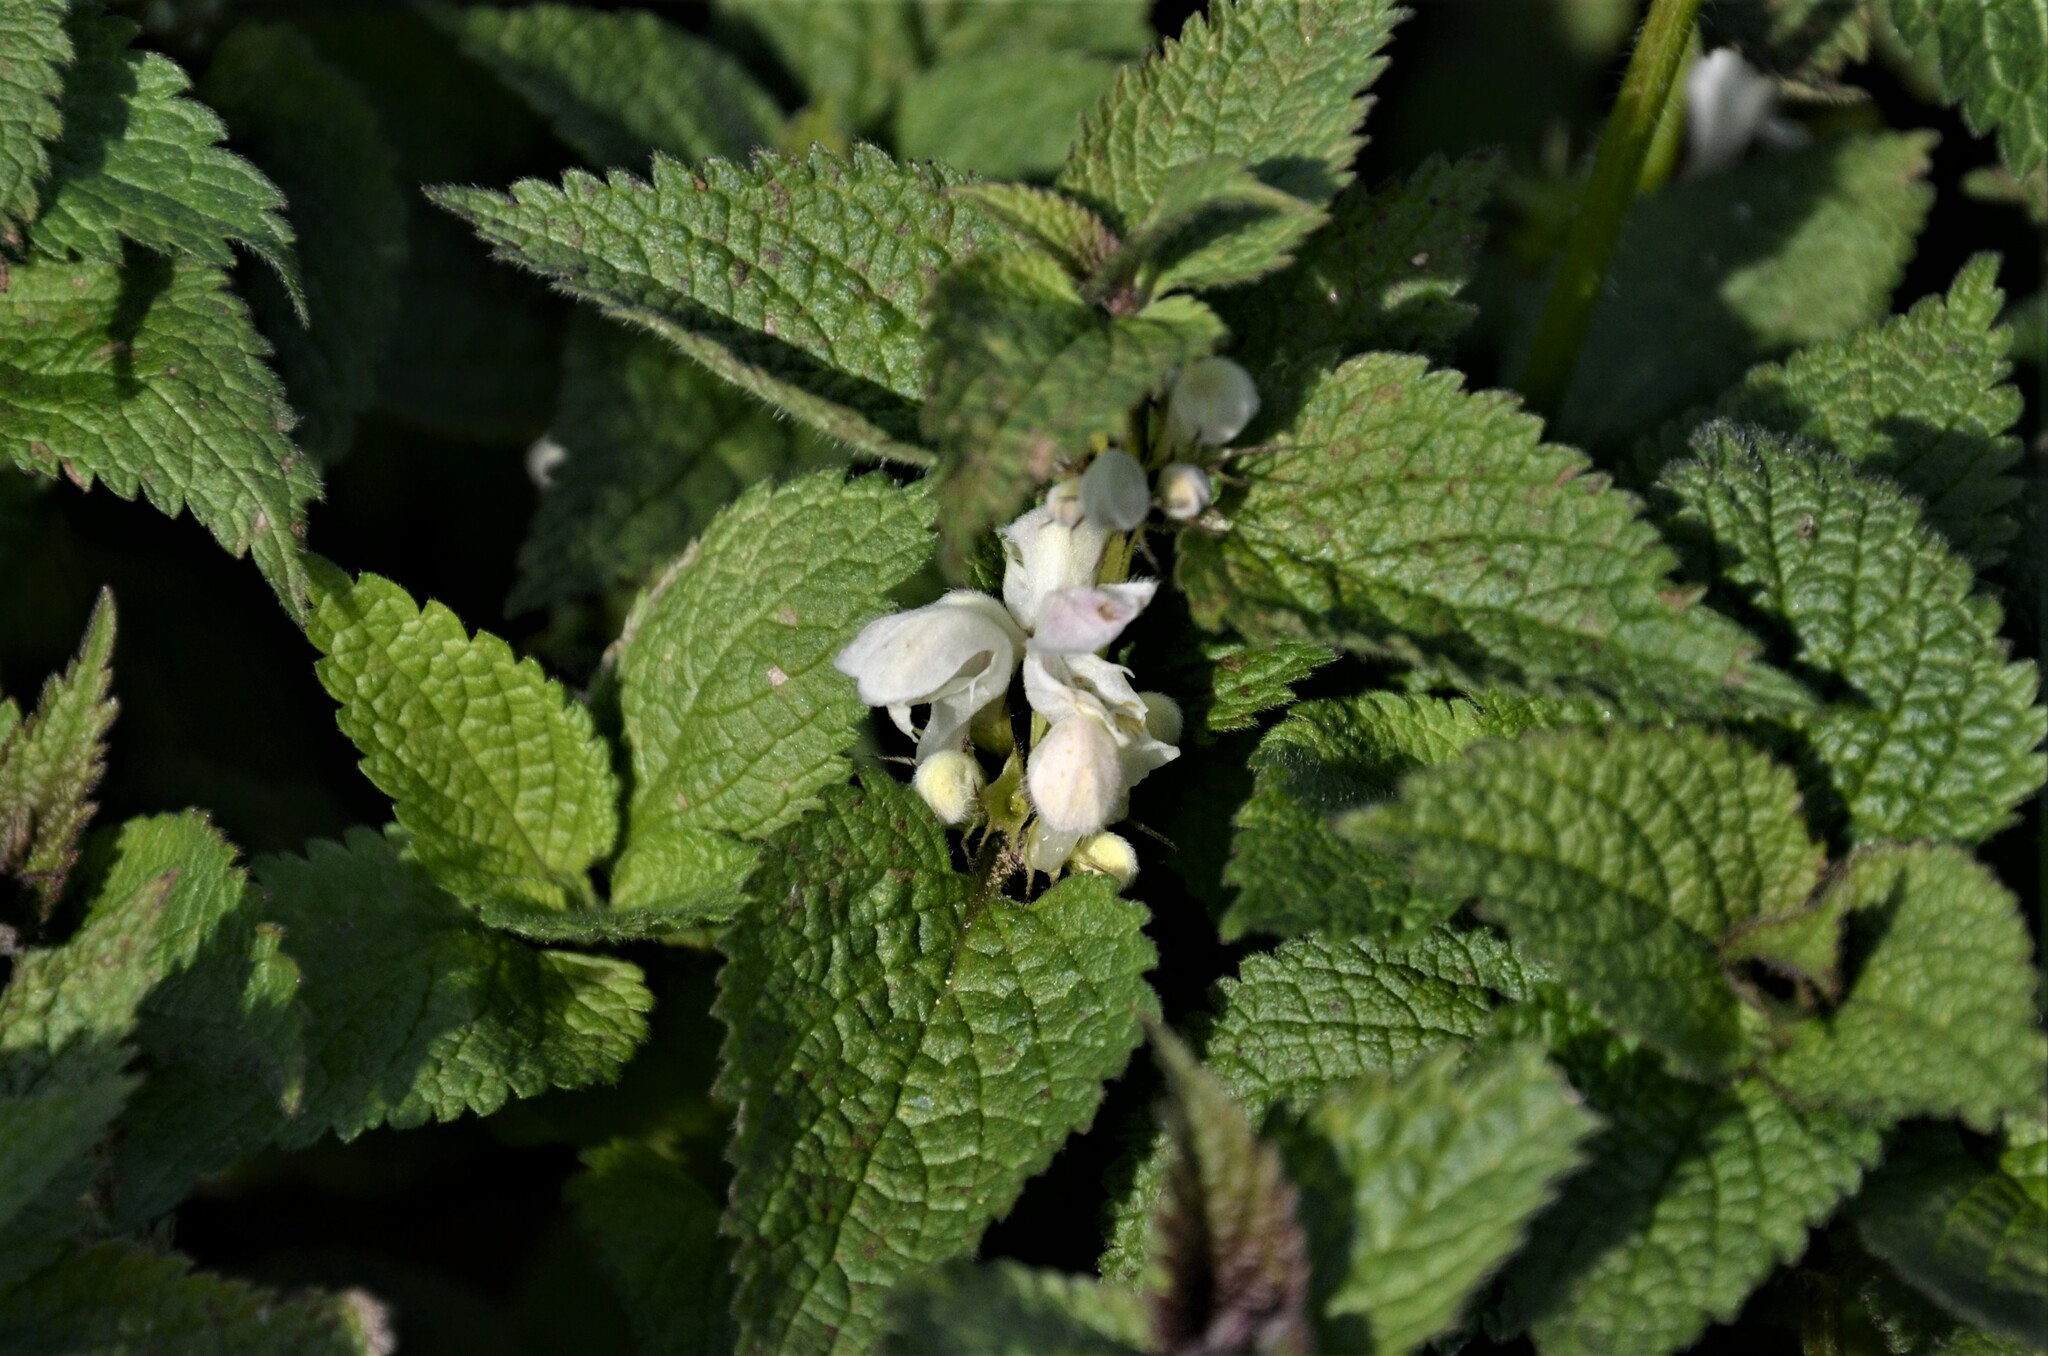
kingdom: Plantae
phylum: Tracheophyta
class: Magnoliopsida
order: Lamiales
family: Lamiaceae
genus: Lamium
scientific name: Lamium album
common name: White dead-nettle
